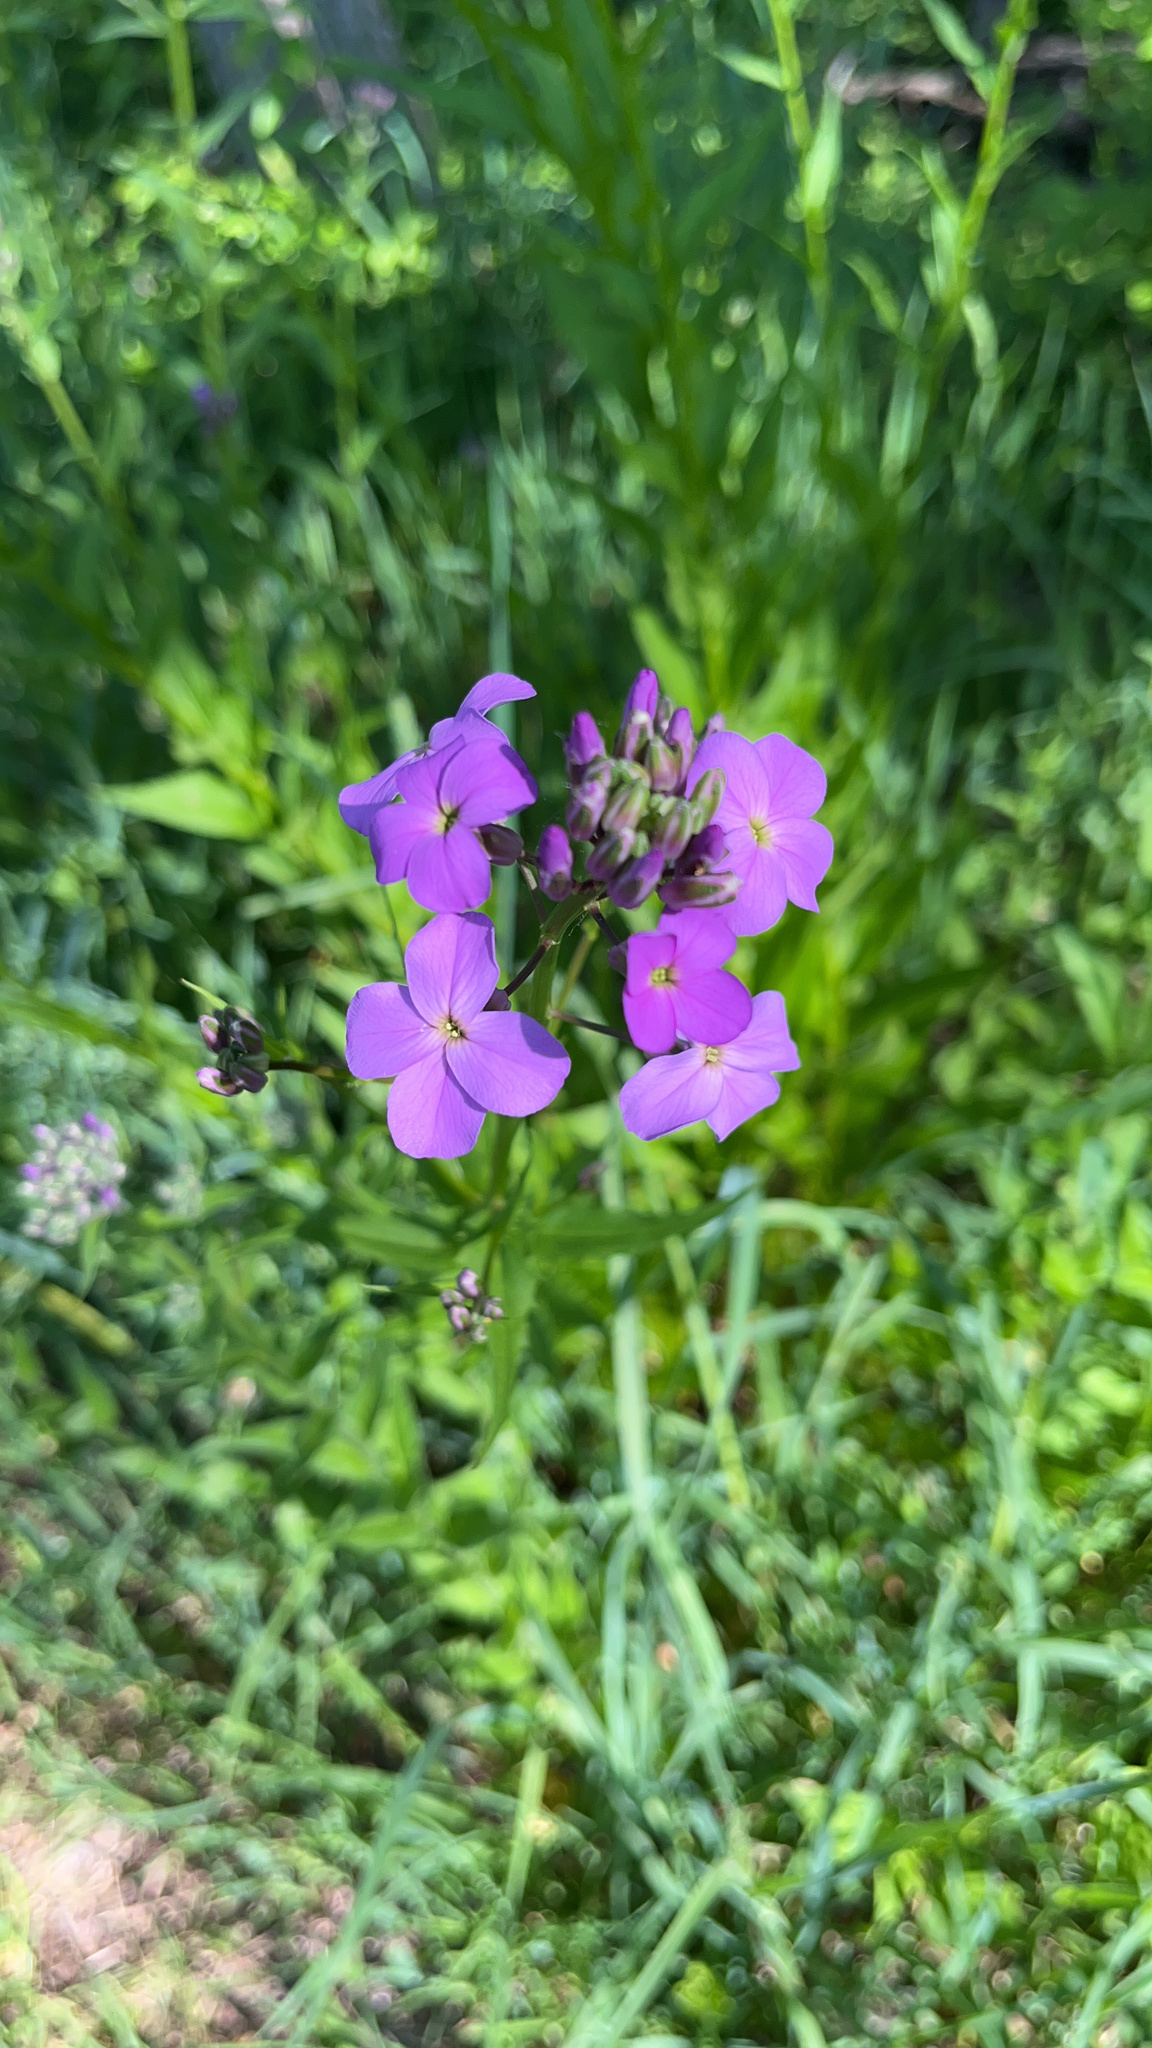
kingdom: Plantae
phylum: Tracheophyta
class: Magnoliopsida
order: Brassicales
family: Brassicaceae
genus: Hesperis
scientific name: Hesperis matronalis
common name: Dame's-violet
